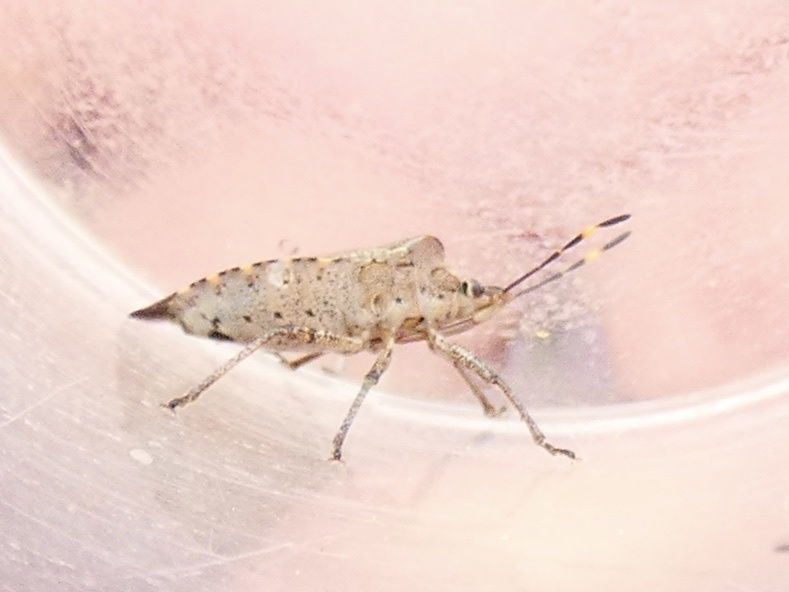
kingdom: Animalia
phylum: Arthropoda
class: Insecta
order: Hemiptera
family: Pentatomidae
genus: Troilus
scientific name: Troilus luridus
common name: Bronze shieldbug
